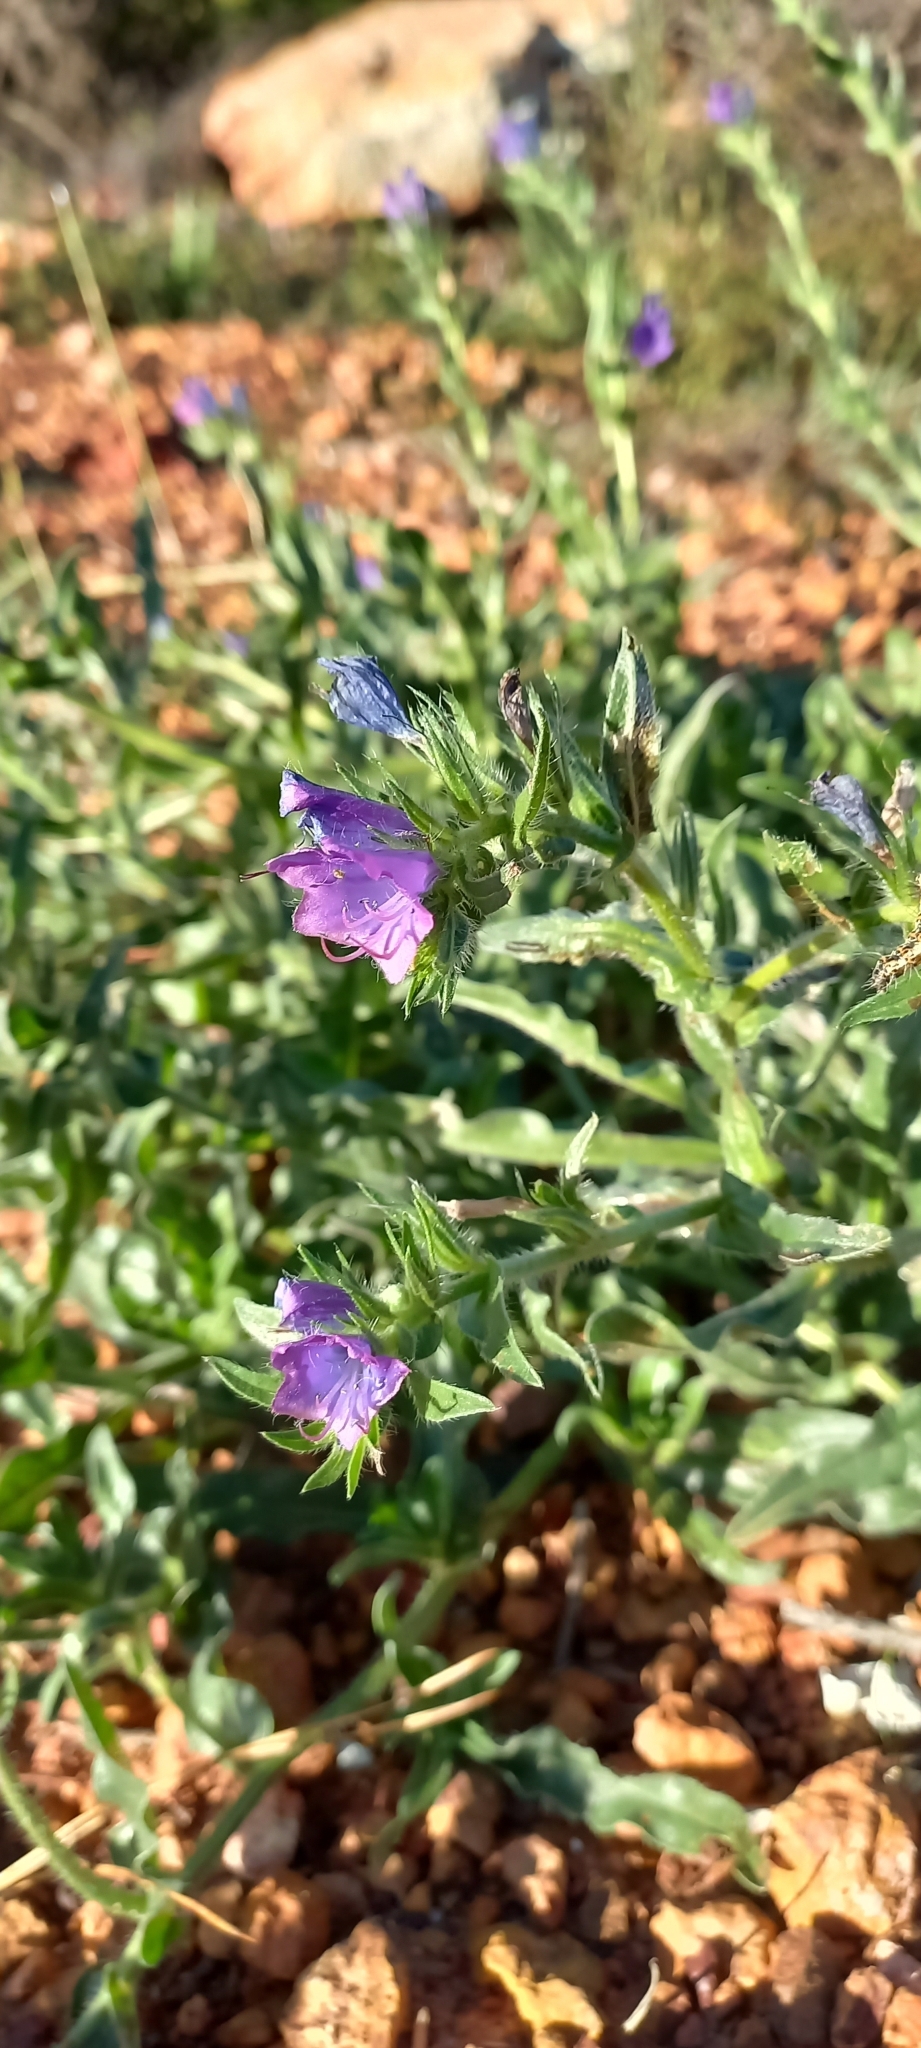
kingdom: Plantae
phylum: Tracheophyta
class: Magnoliopsida
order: Boraginales
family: Boraginaceae
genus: Echium
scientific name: Echium plantagineum
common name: Purple viper's-bugloss
